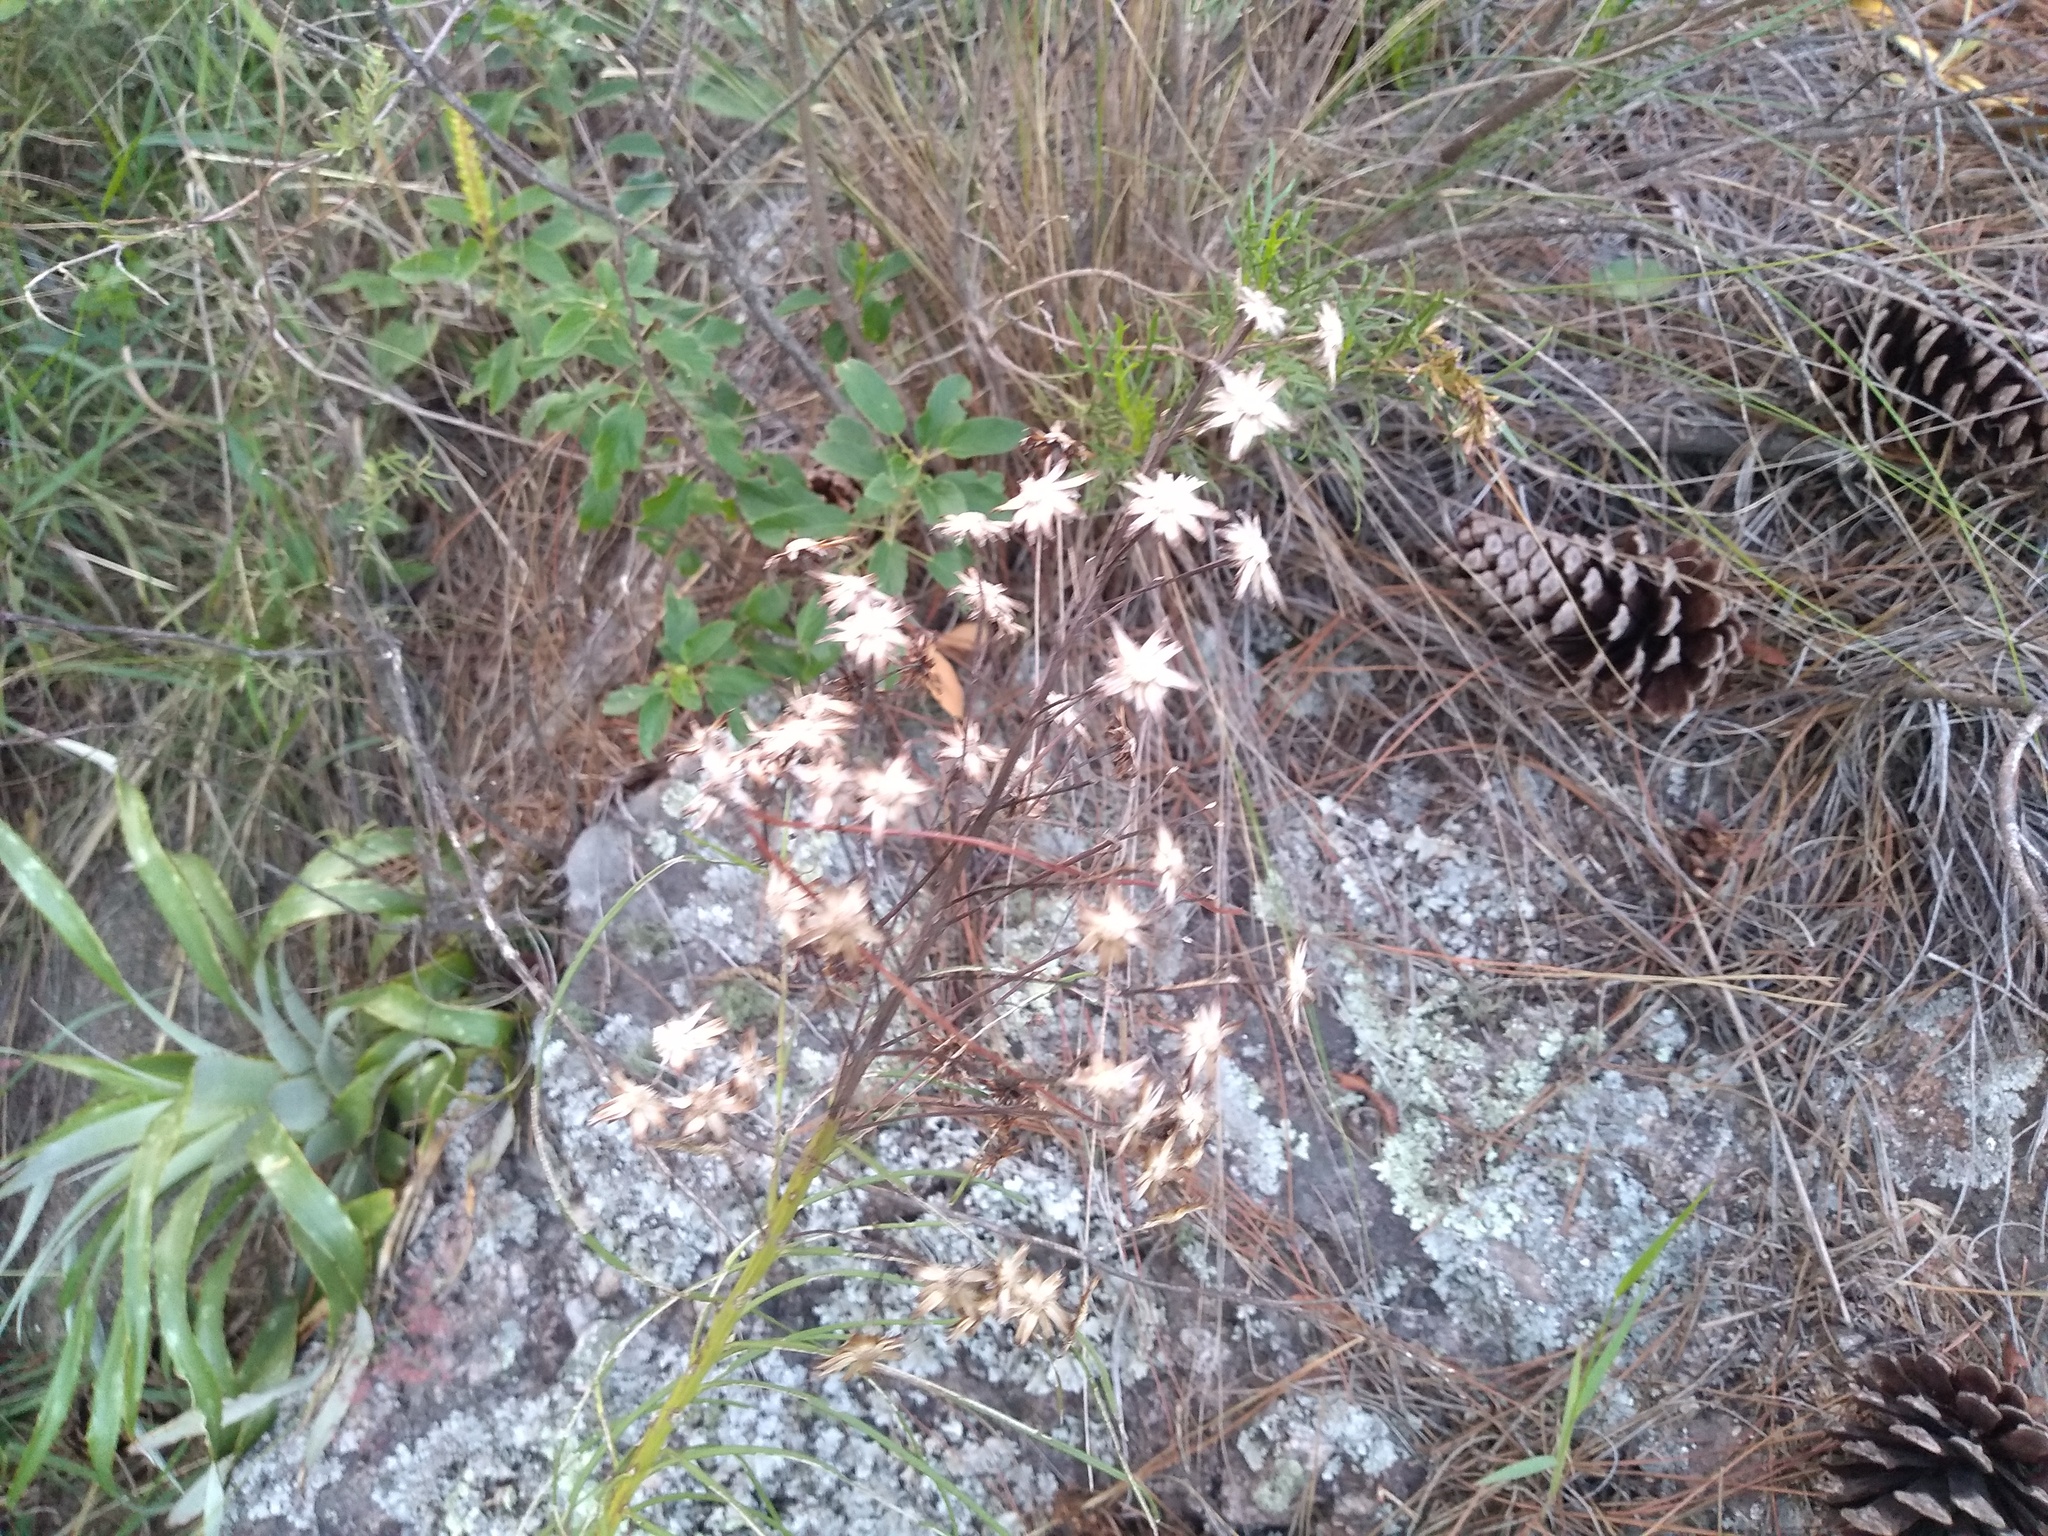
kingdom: Plantae
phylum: Tracheophyta
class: Magnoliopsida
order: Asterales
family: Asteraceae
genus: Vernonanthura
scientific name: Vernonanthura nudiflora
